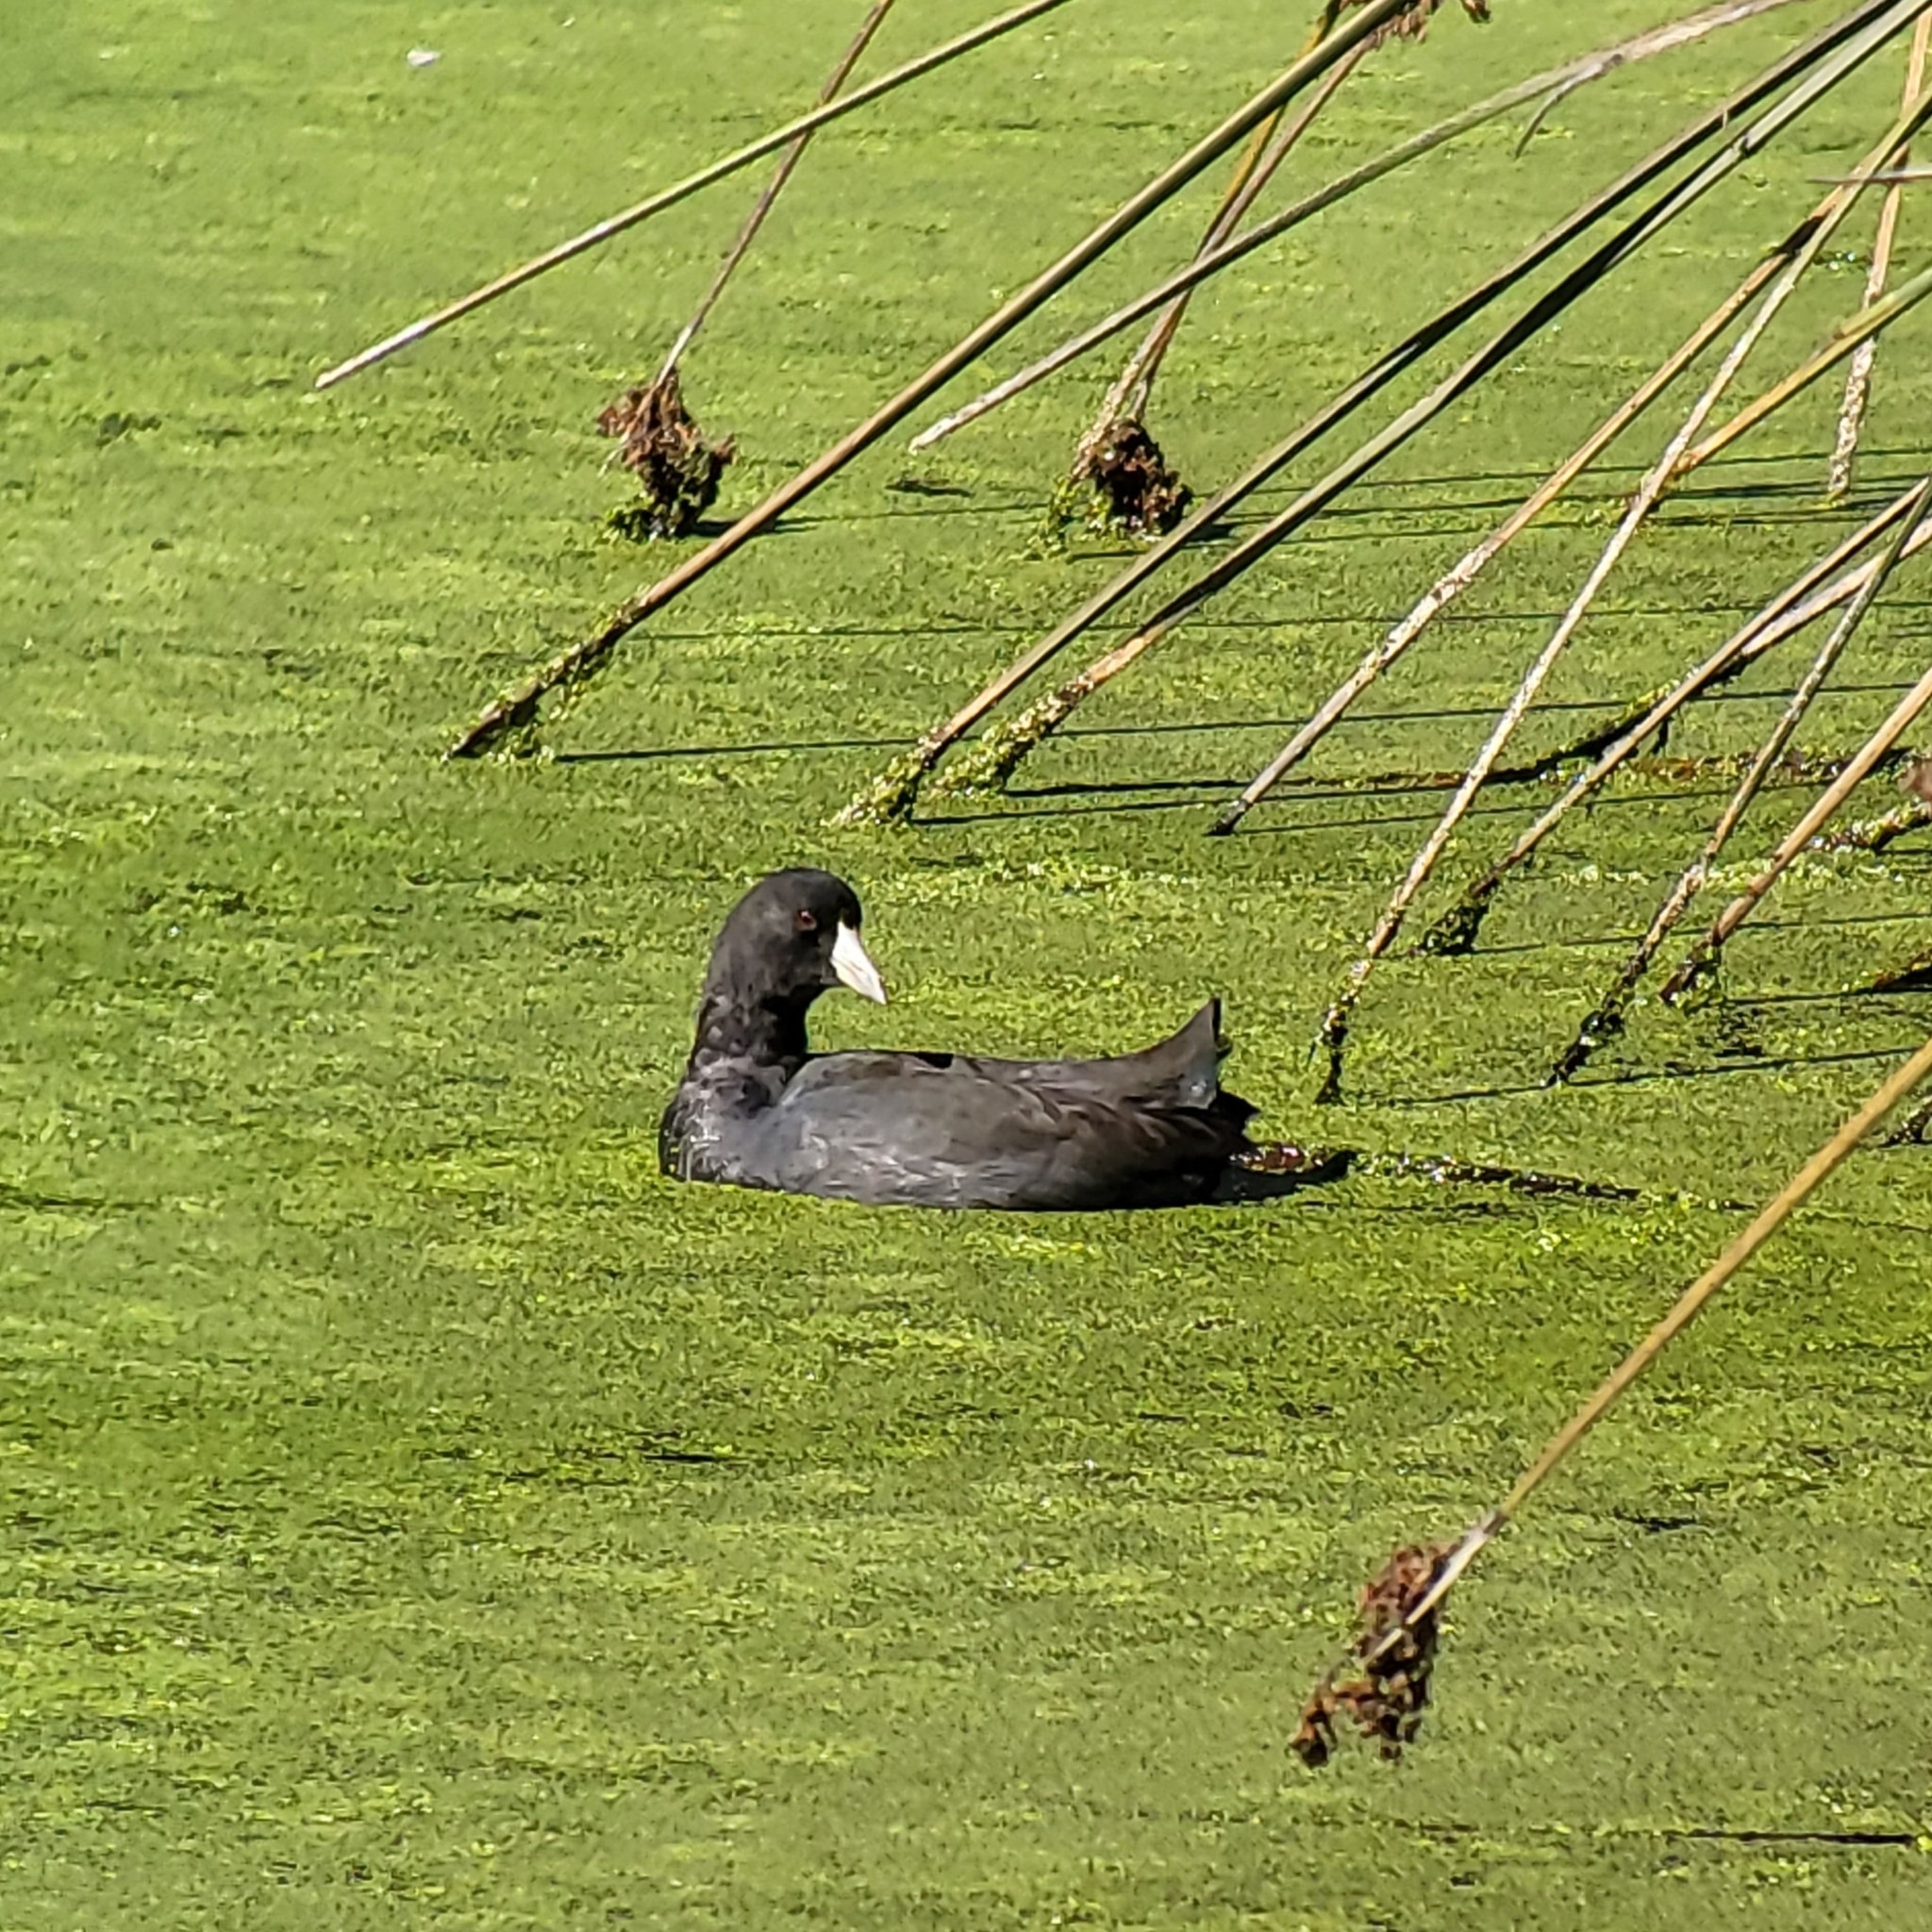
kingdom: Animalia
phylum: Chordata
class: Aves
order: Gruiformes
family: Rallidae
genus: Fulica
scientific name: Fulica americana
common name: American coot
